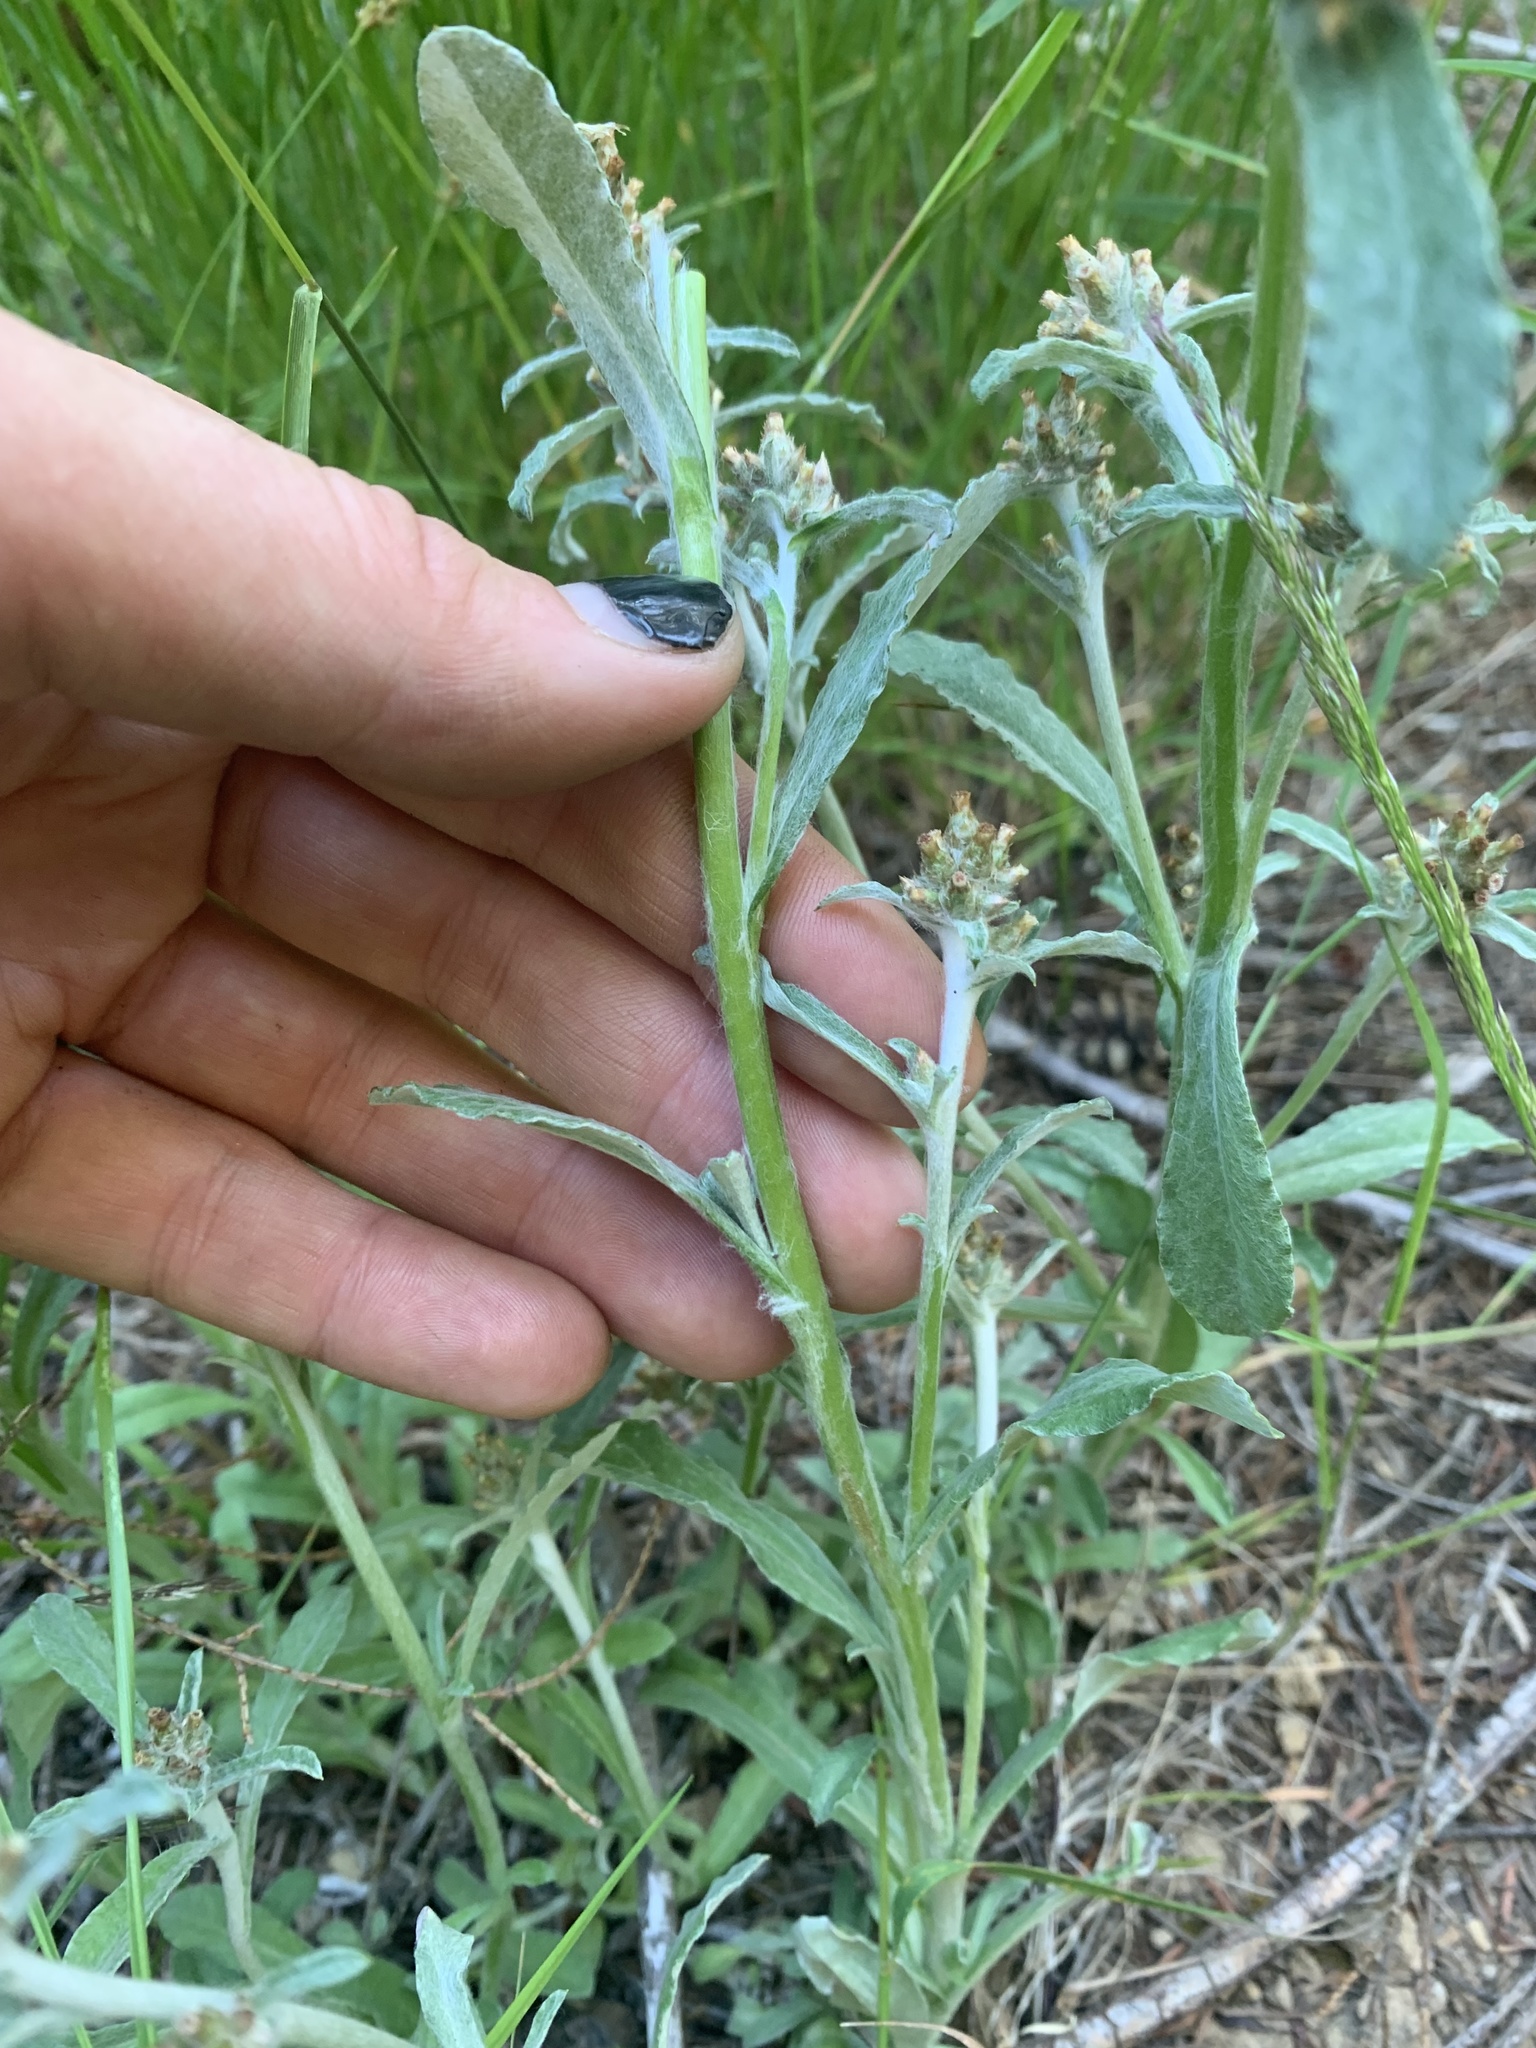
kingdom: Plantae
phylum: Tracheophyta
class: Magnoliopsida
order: Asterales
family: Asteraceae
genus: Gamochaeta
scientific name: Gamochaeta ustulata
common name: Pacific cudweed
